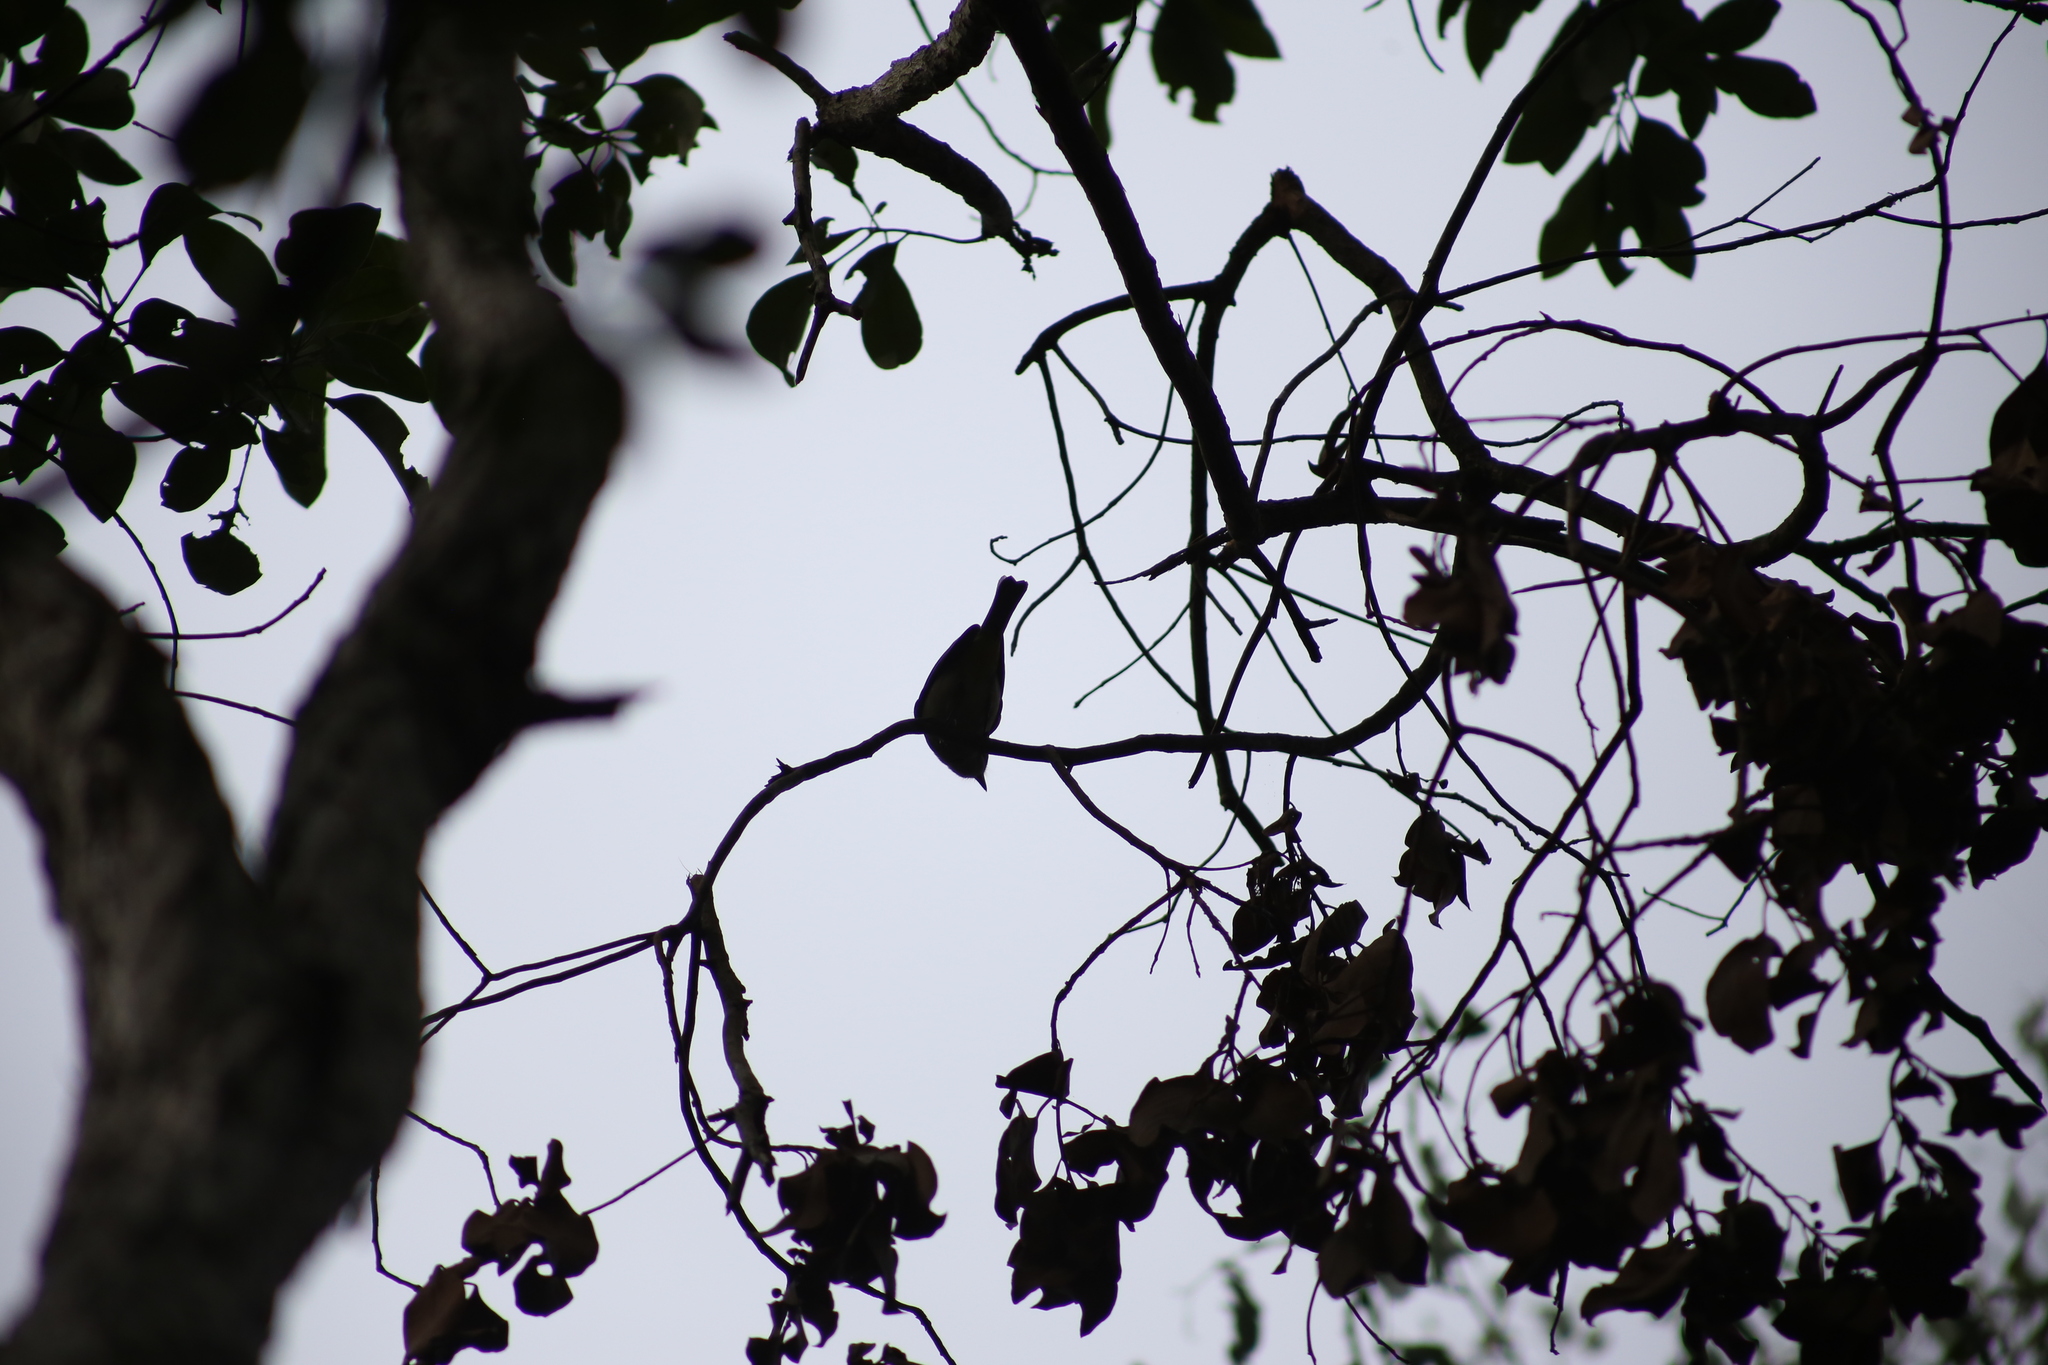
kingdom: Animalia
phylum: Chordata
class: Aves
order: Passeriformes
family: Pachycephalidae
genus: Pachycephala
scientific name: Pachycephala pectoralis
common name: Australian golden whistler
